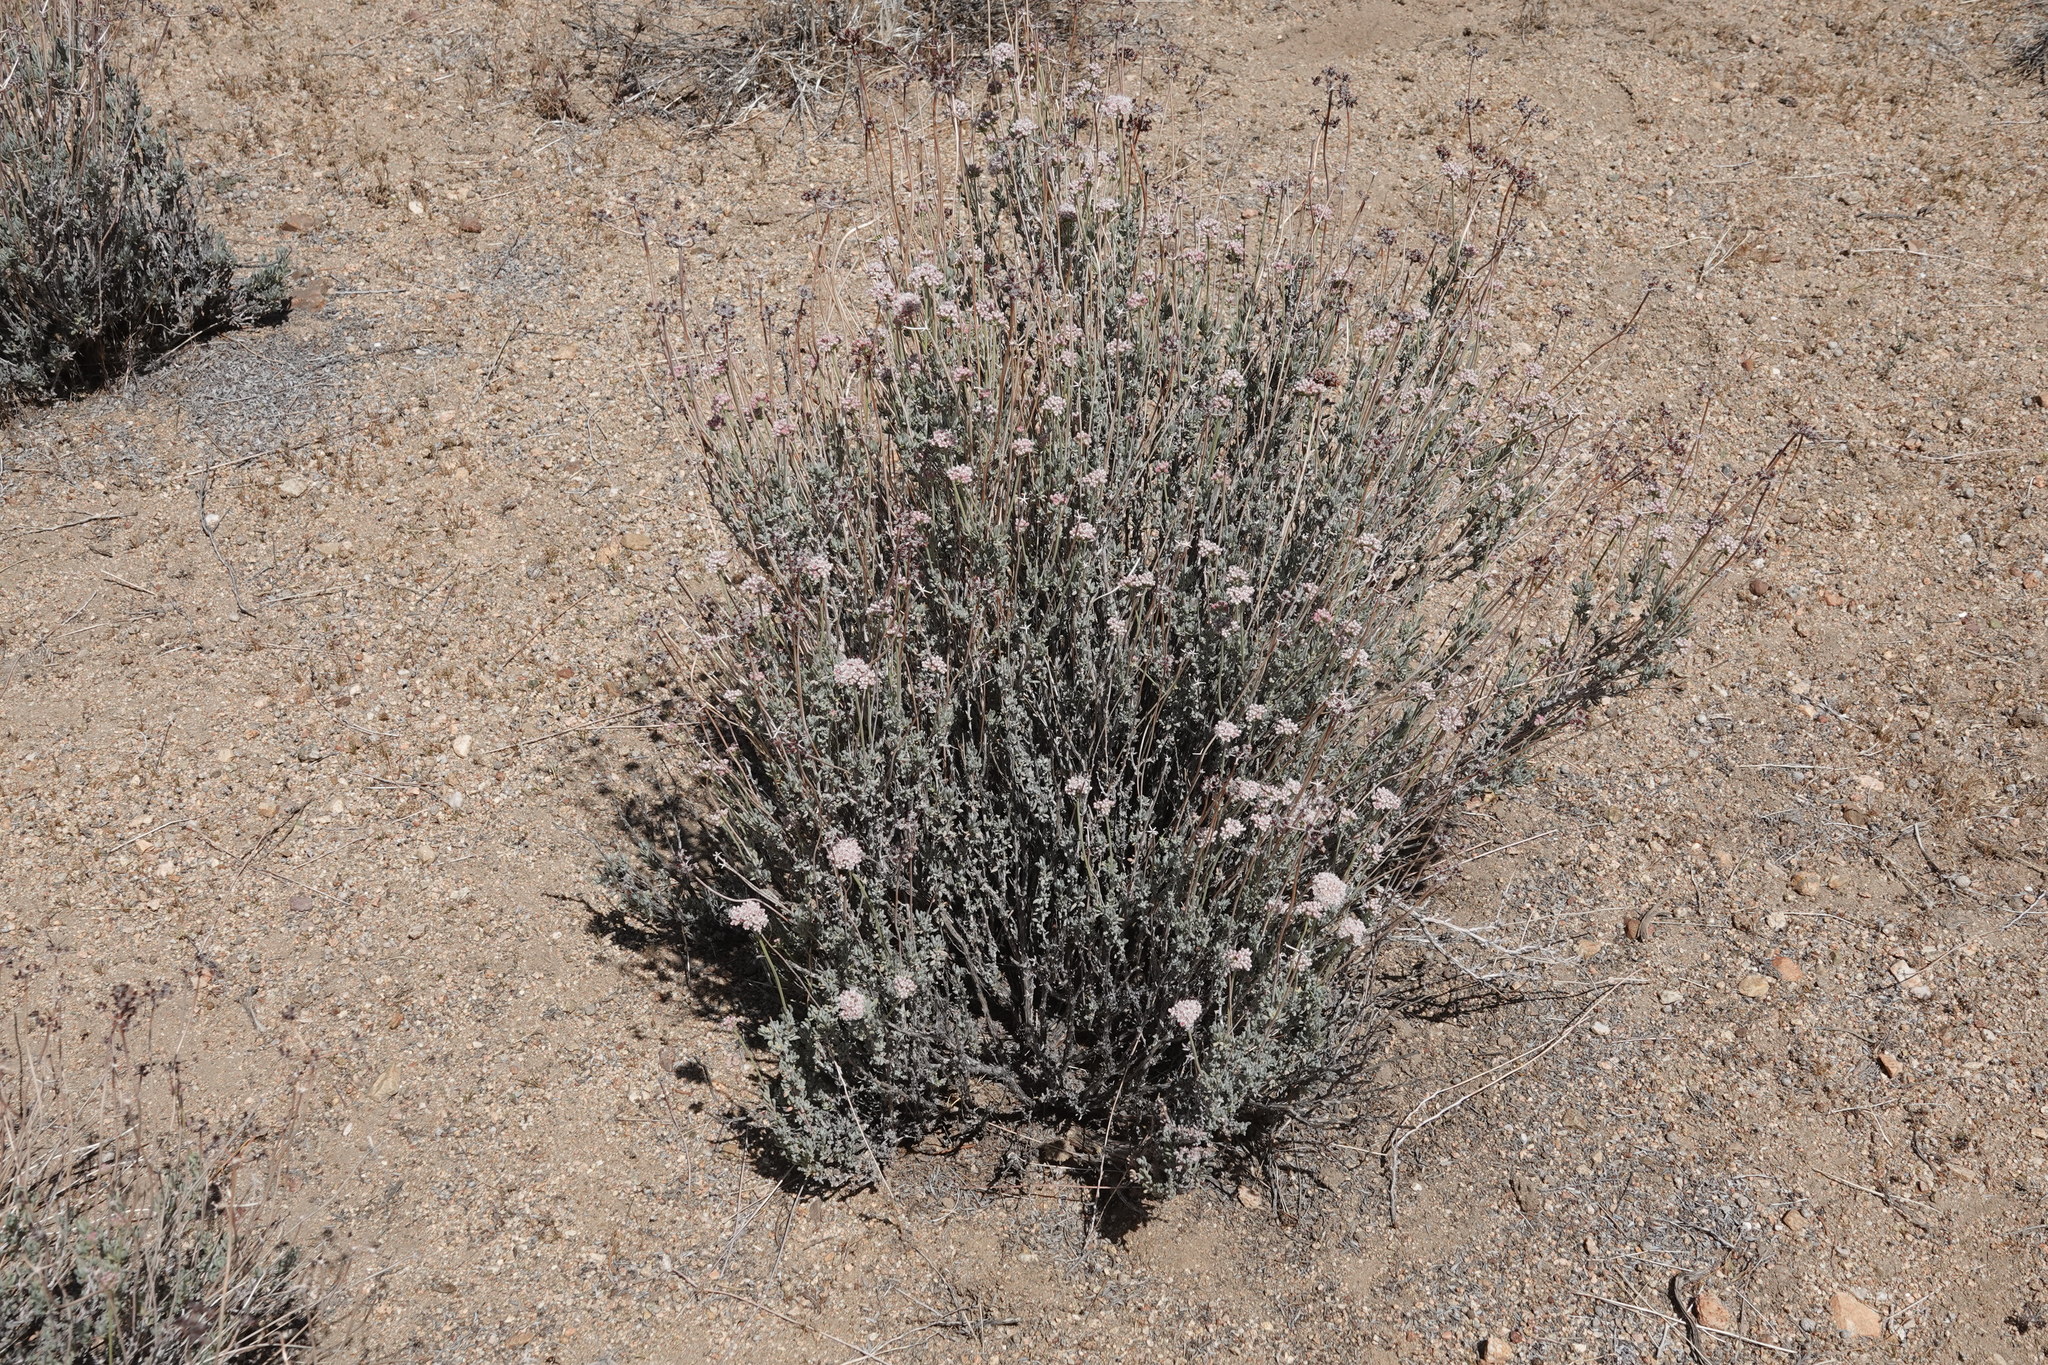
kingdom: Plantae
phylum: Tracheophyta
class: Magnoliopsida
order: Caryophyllales
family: Polygonaceae
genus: Eriogonum
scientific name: Eriogonum fasciculatum
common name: California wild buckwheat
